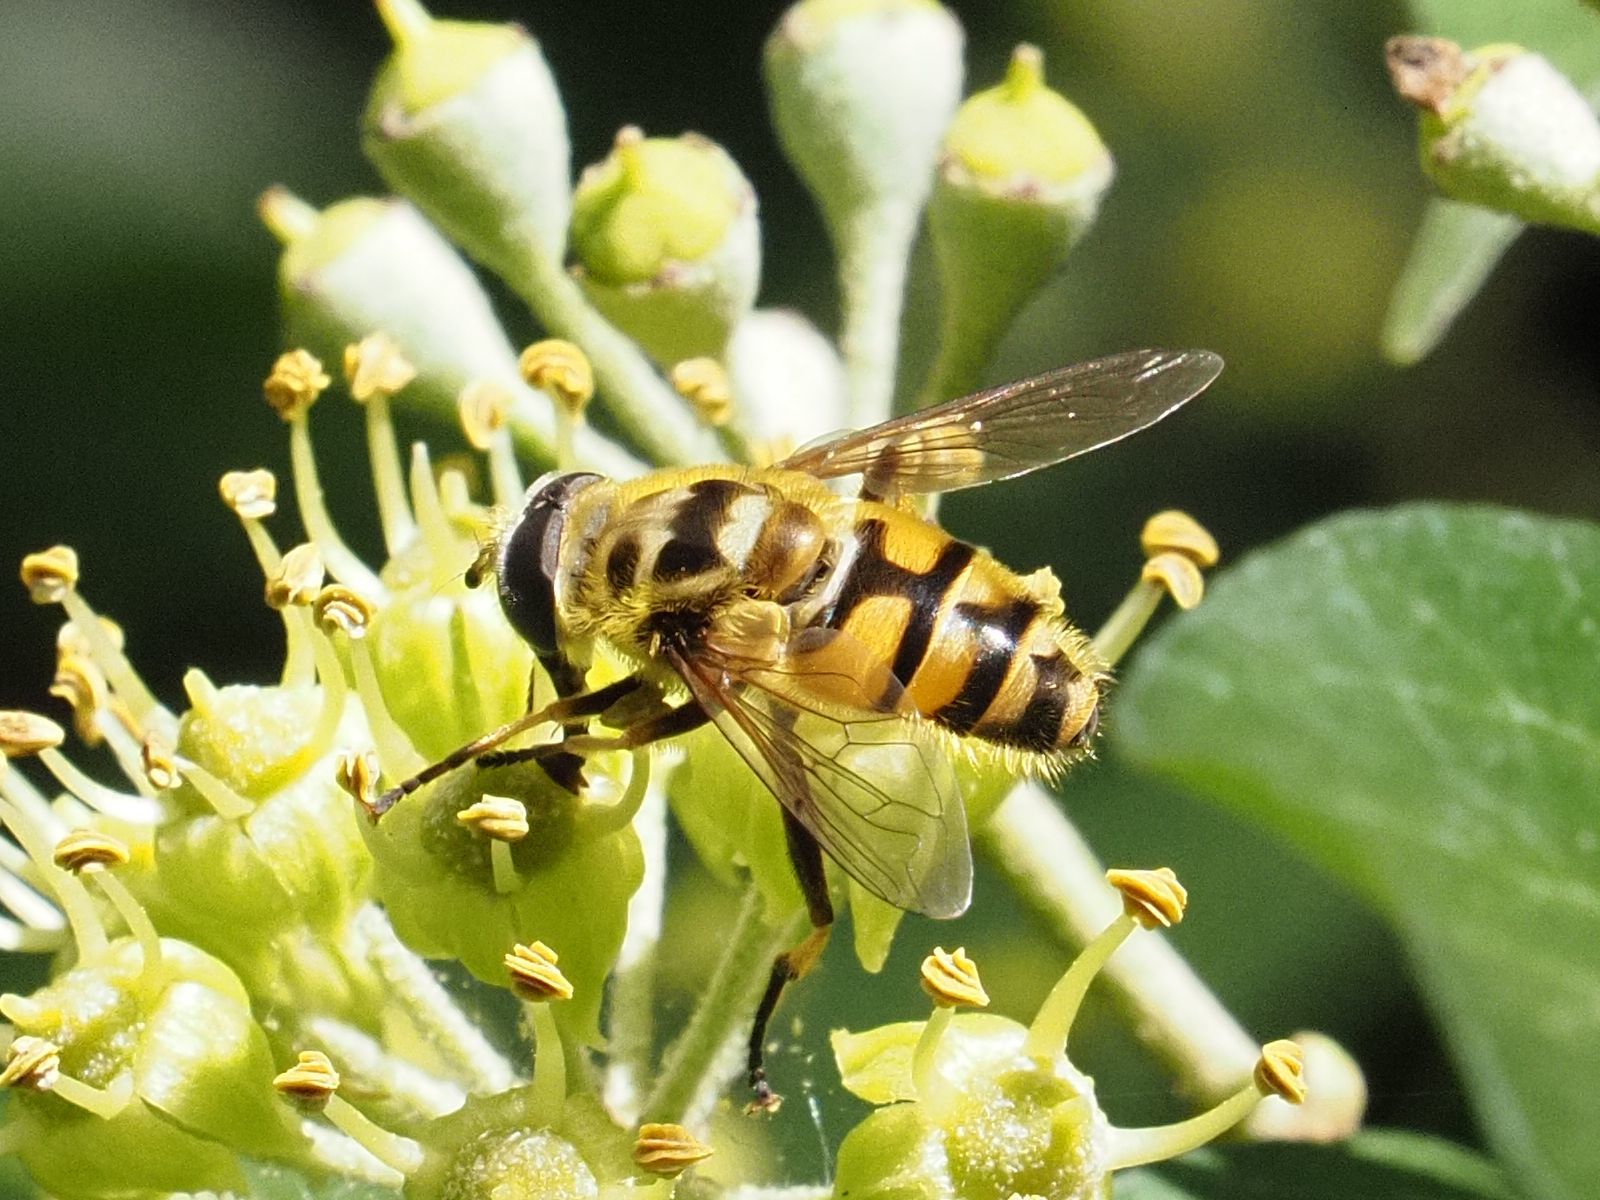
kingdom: Animalia
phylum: Arthropoda
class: Insecta
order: Diptera
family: Syrphidae
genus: Myathropa
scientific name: Myathropa florea
